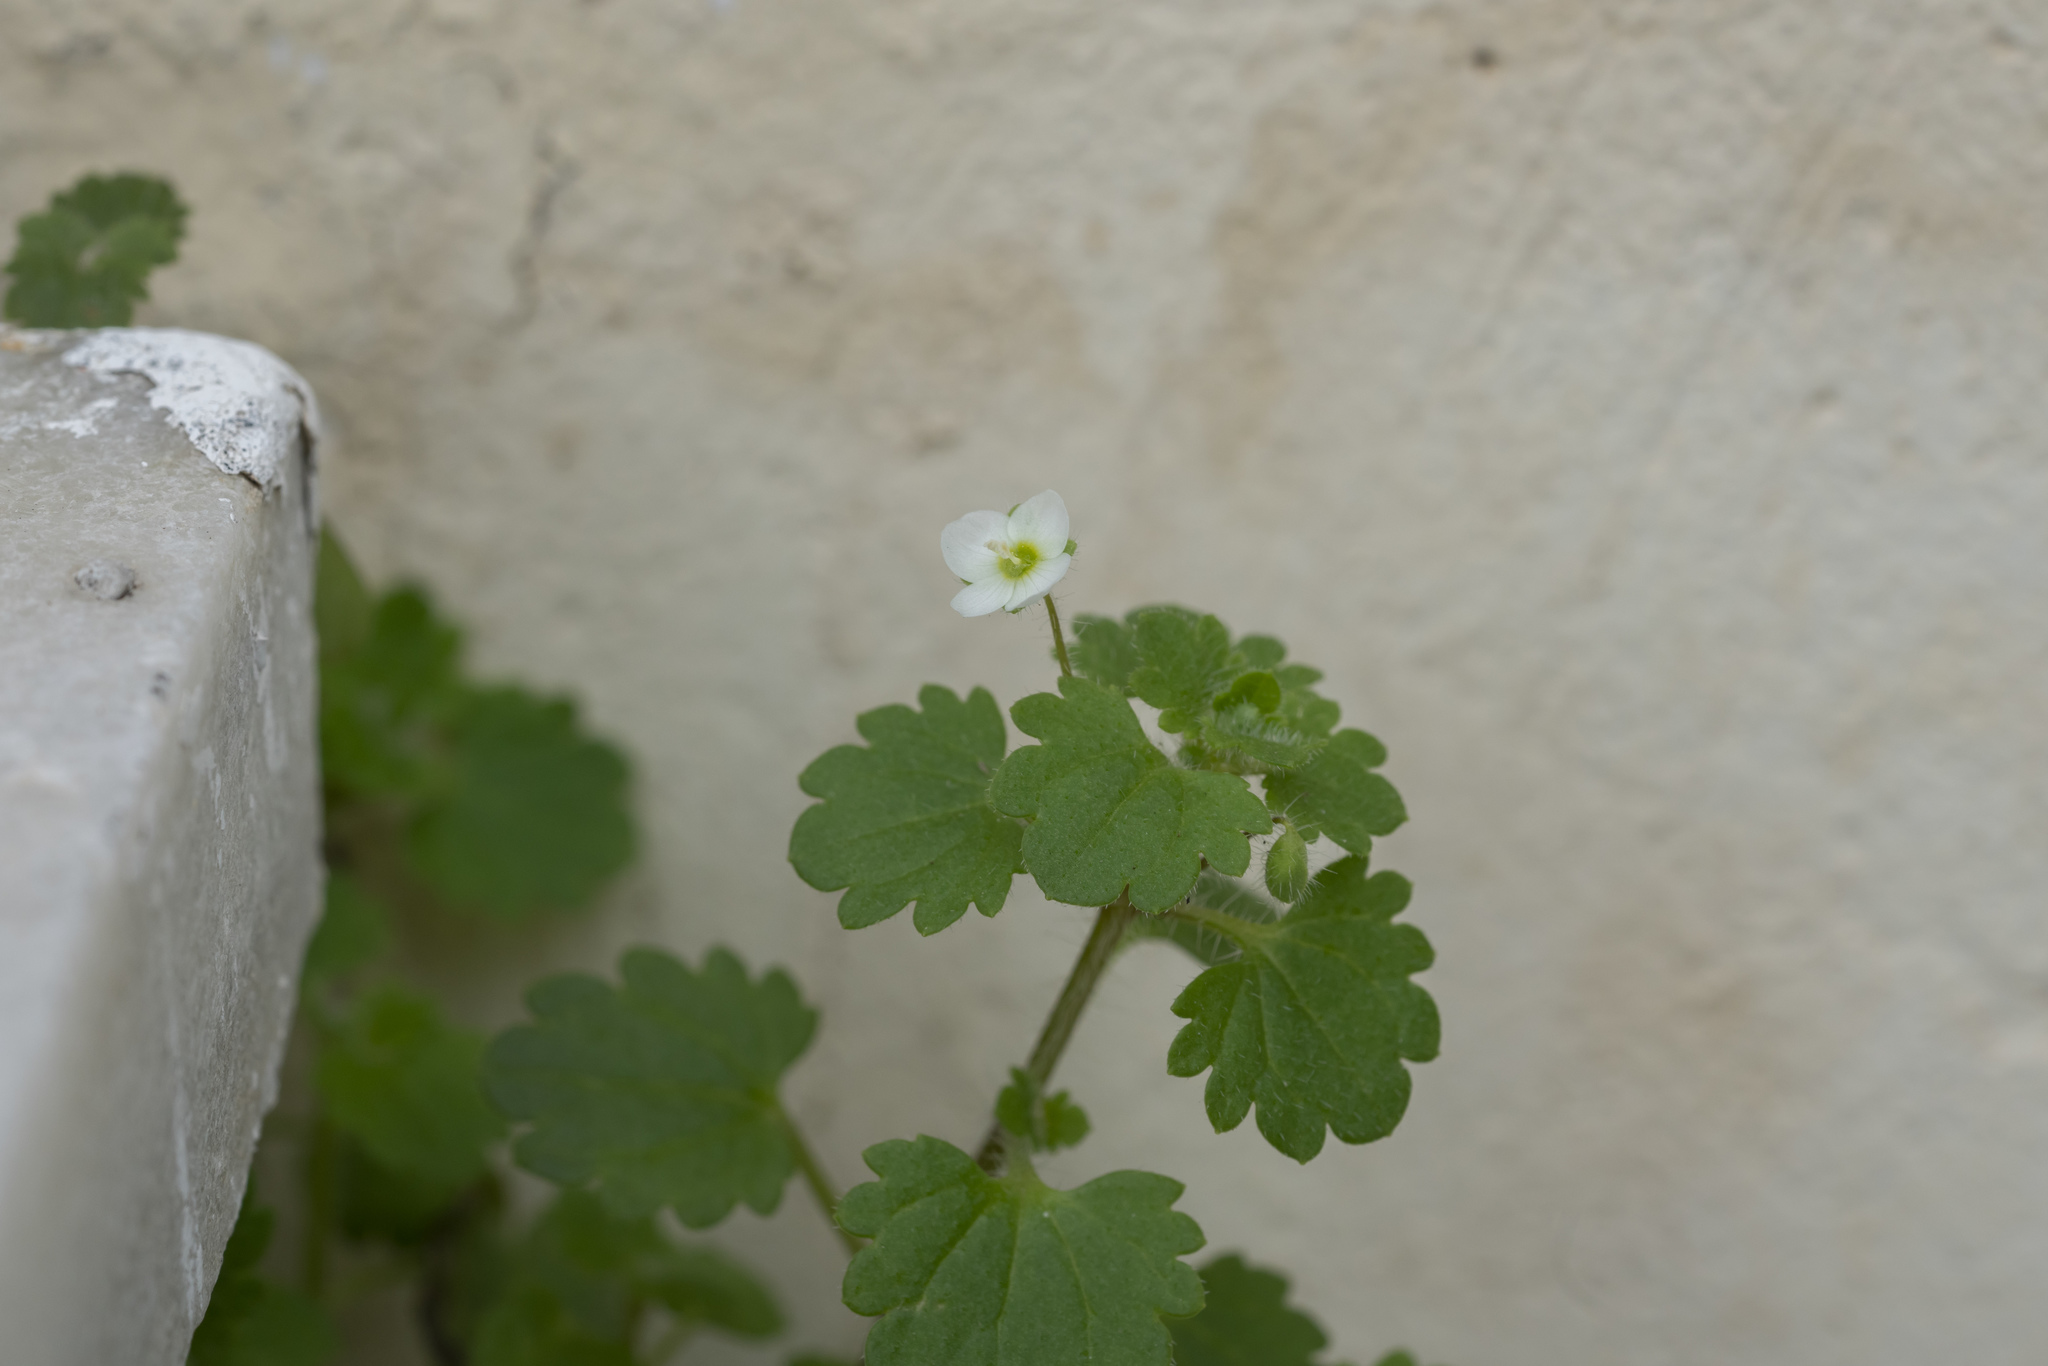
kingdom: Plantae
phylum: Tracheophyta
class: Magnoliopsida
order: Lamiales
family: Plantaginaceae
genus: Veronica
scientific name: Veronica cymbalaria
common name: Pale speedwell
